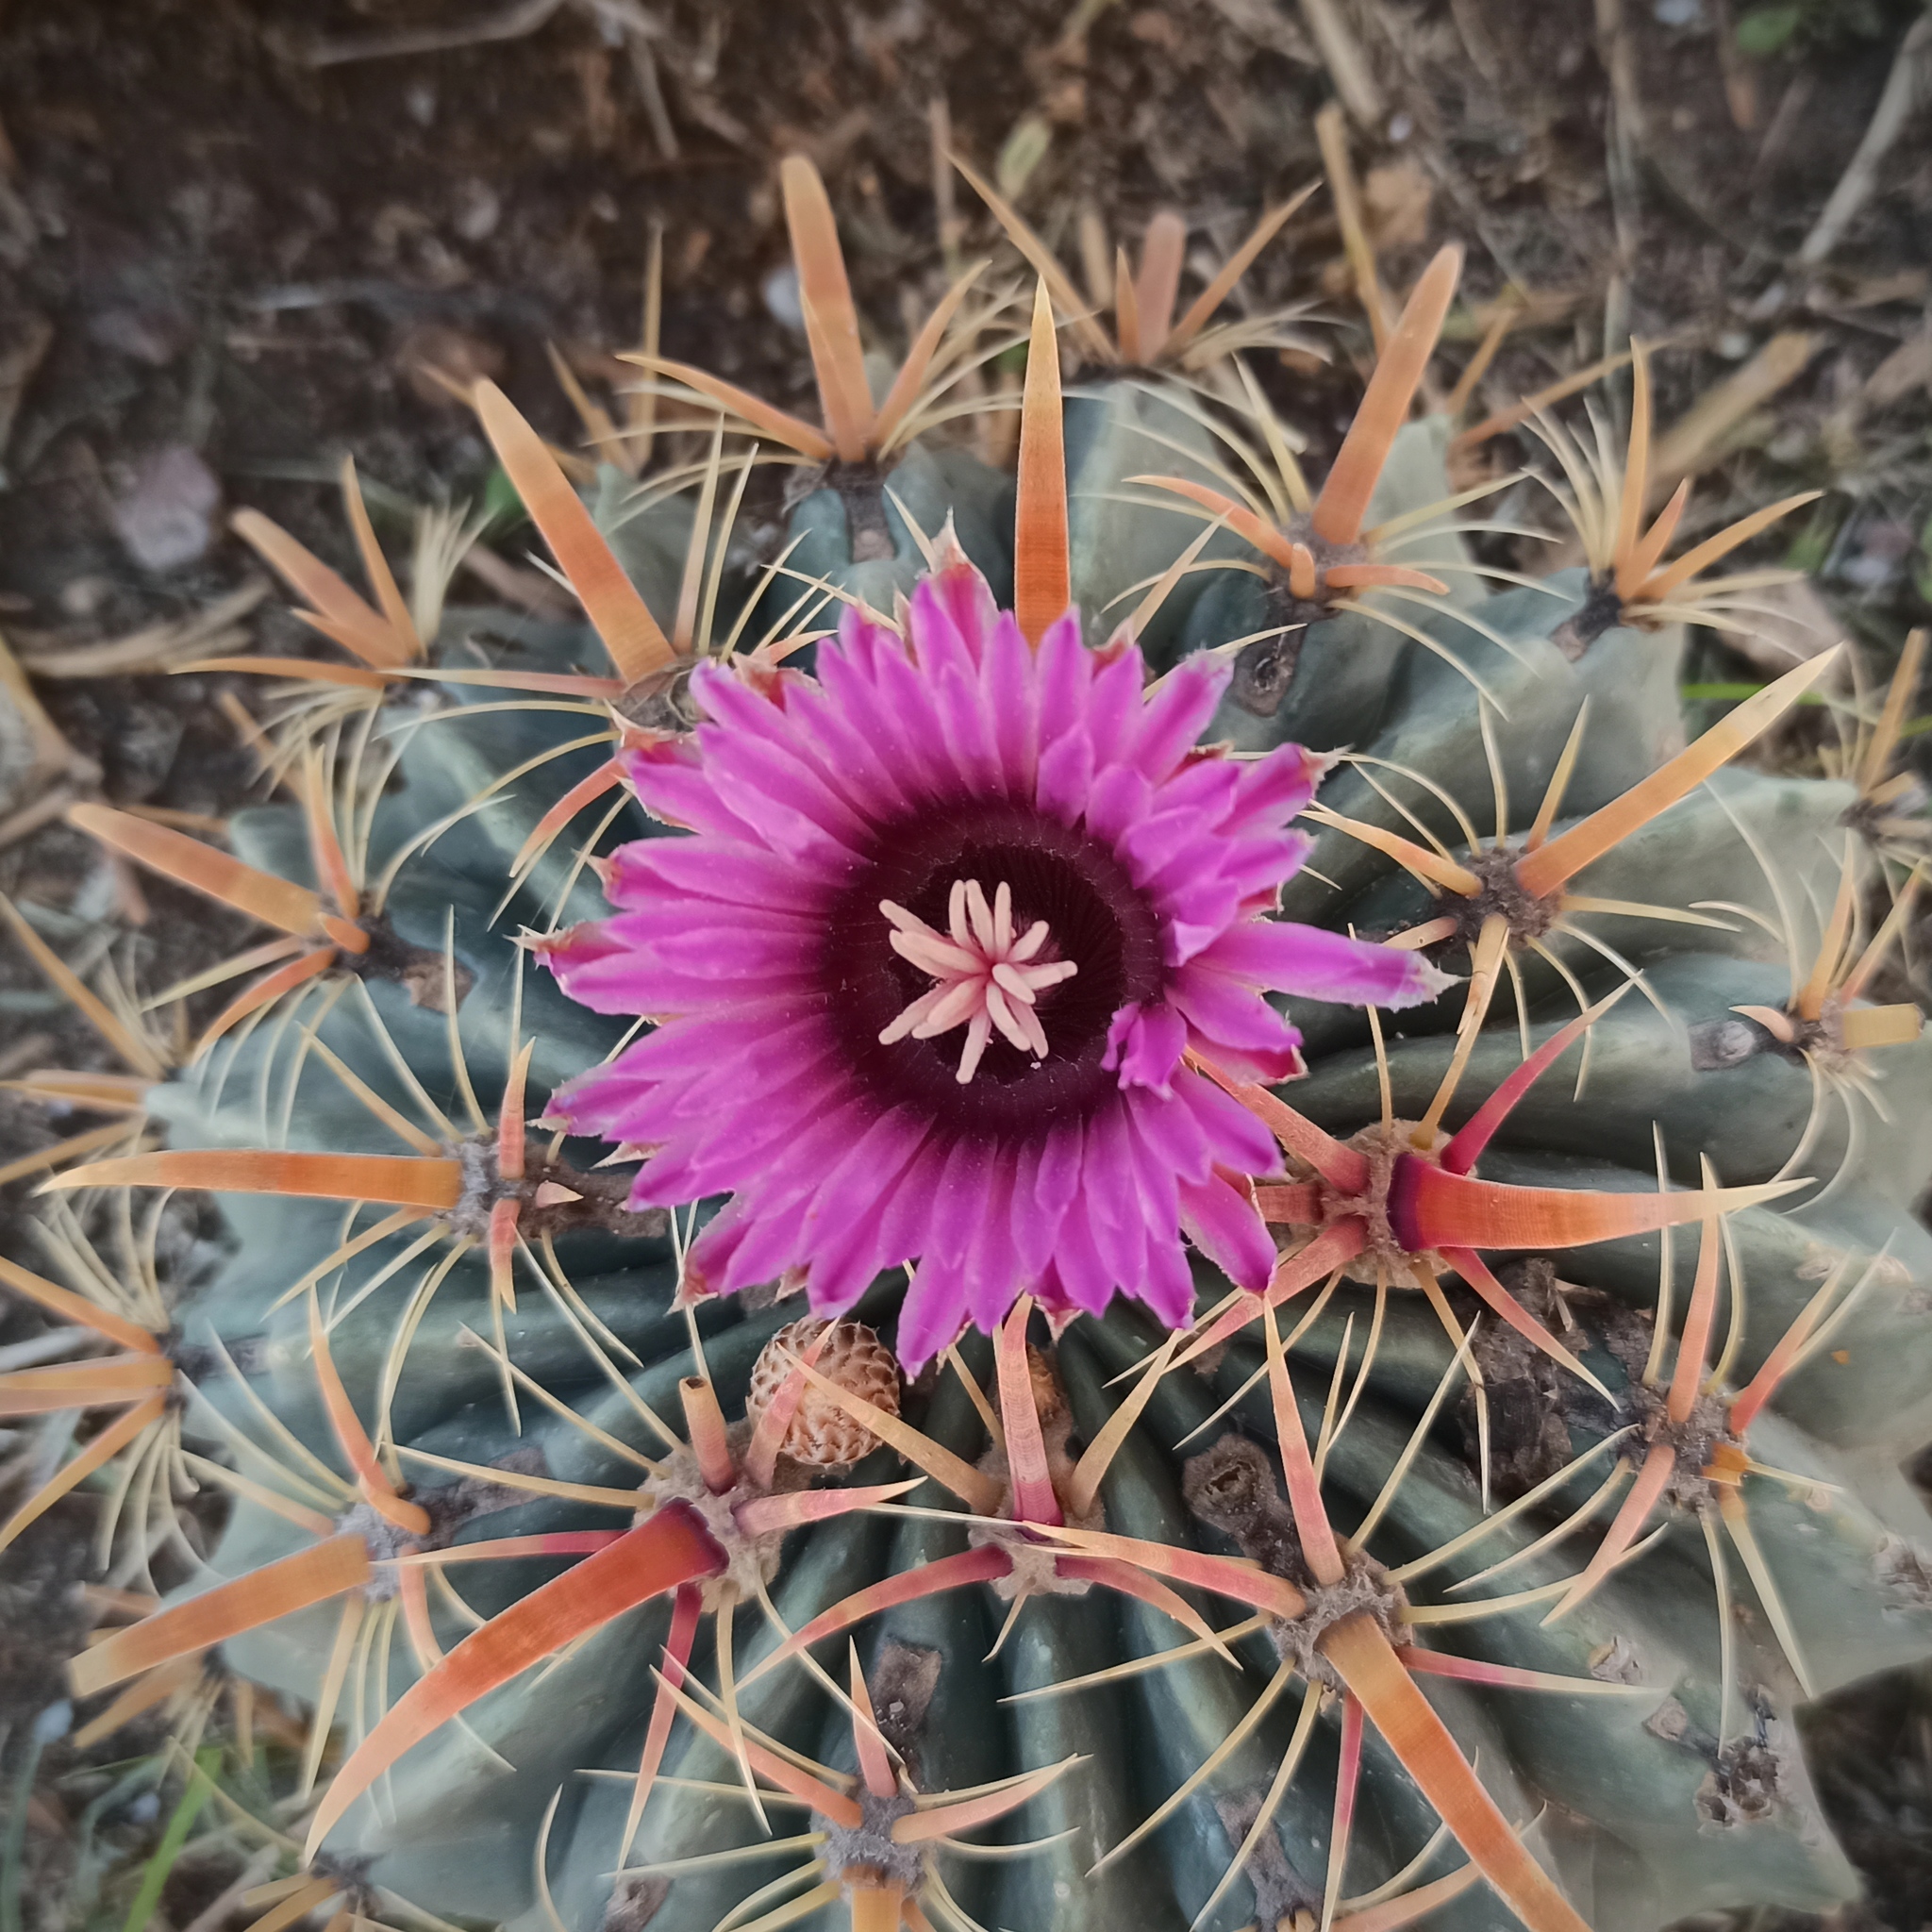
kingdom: Plantae
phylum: Tracheophyta
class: Magnoliopsida
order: Caryophyllales
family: Cactaceae
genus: Ferocactus
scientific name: Ferocactus latispinus
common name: Devil's-tongue cactus
